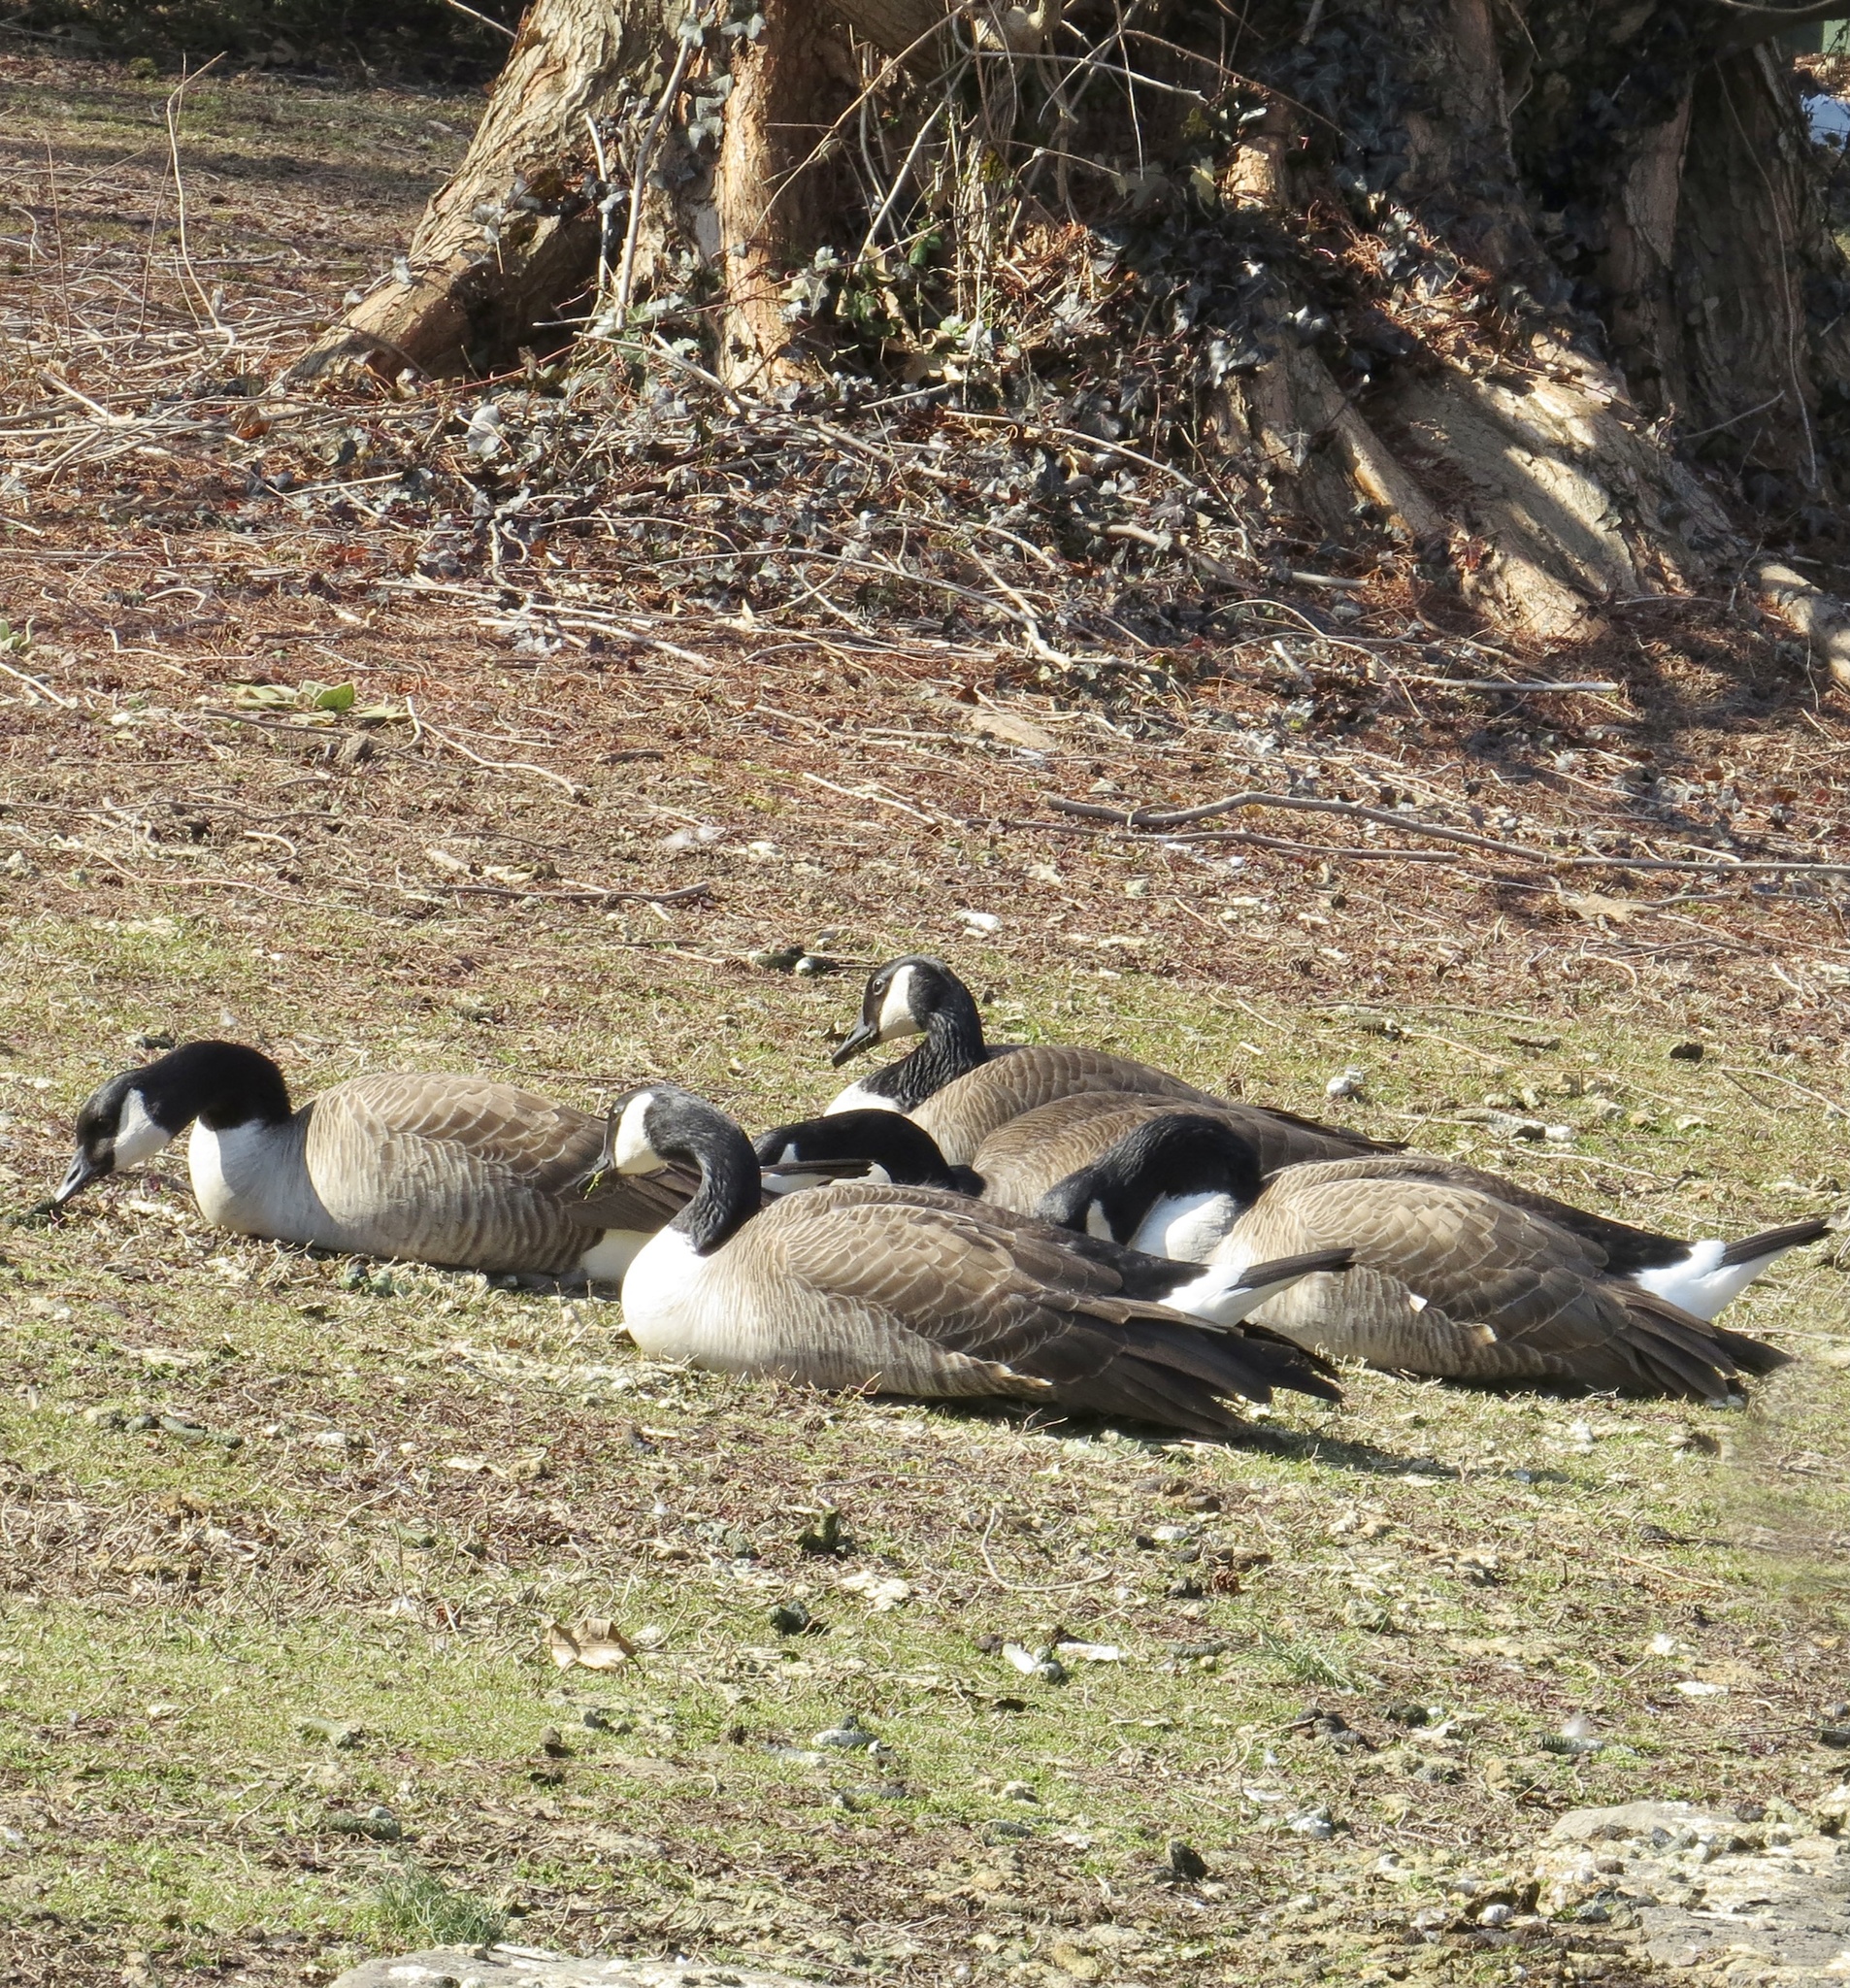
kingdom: Animalia
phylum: Chordata
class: Aves
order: Anseriformes
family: Anatidae
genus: Branta
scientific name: Branta canadensis
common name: Canada goose
